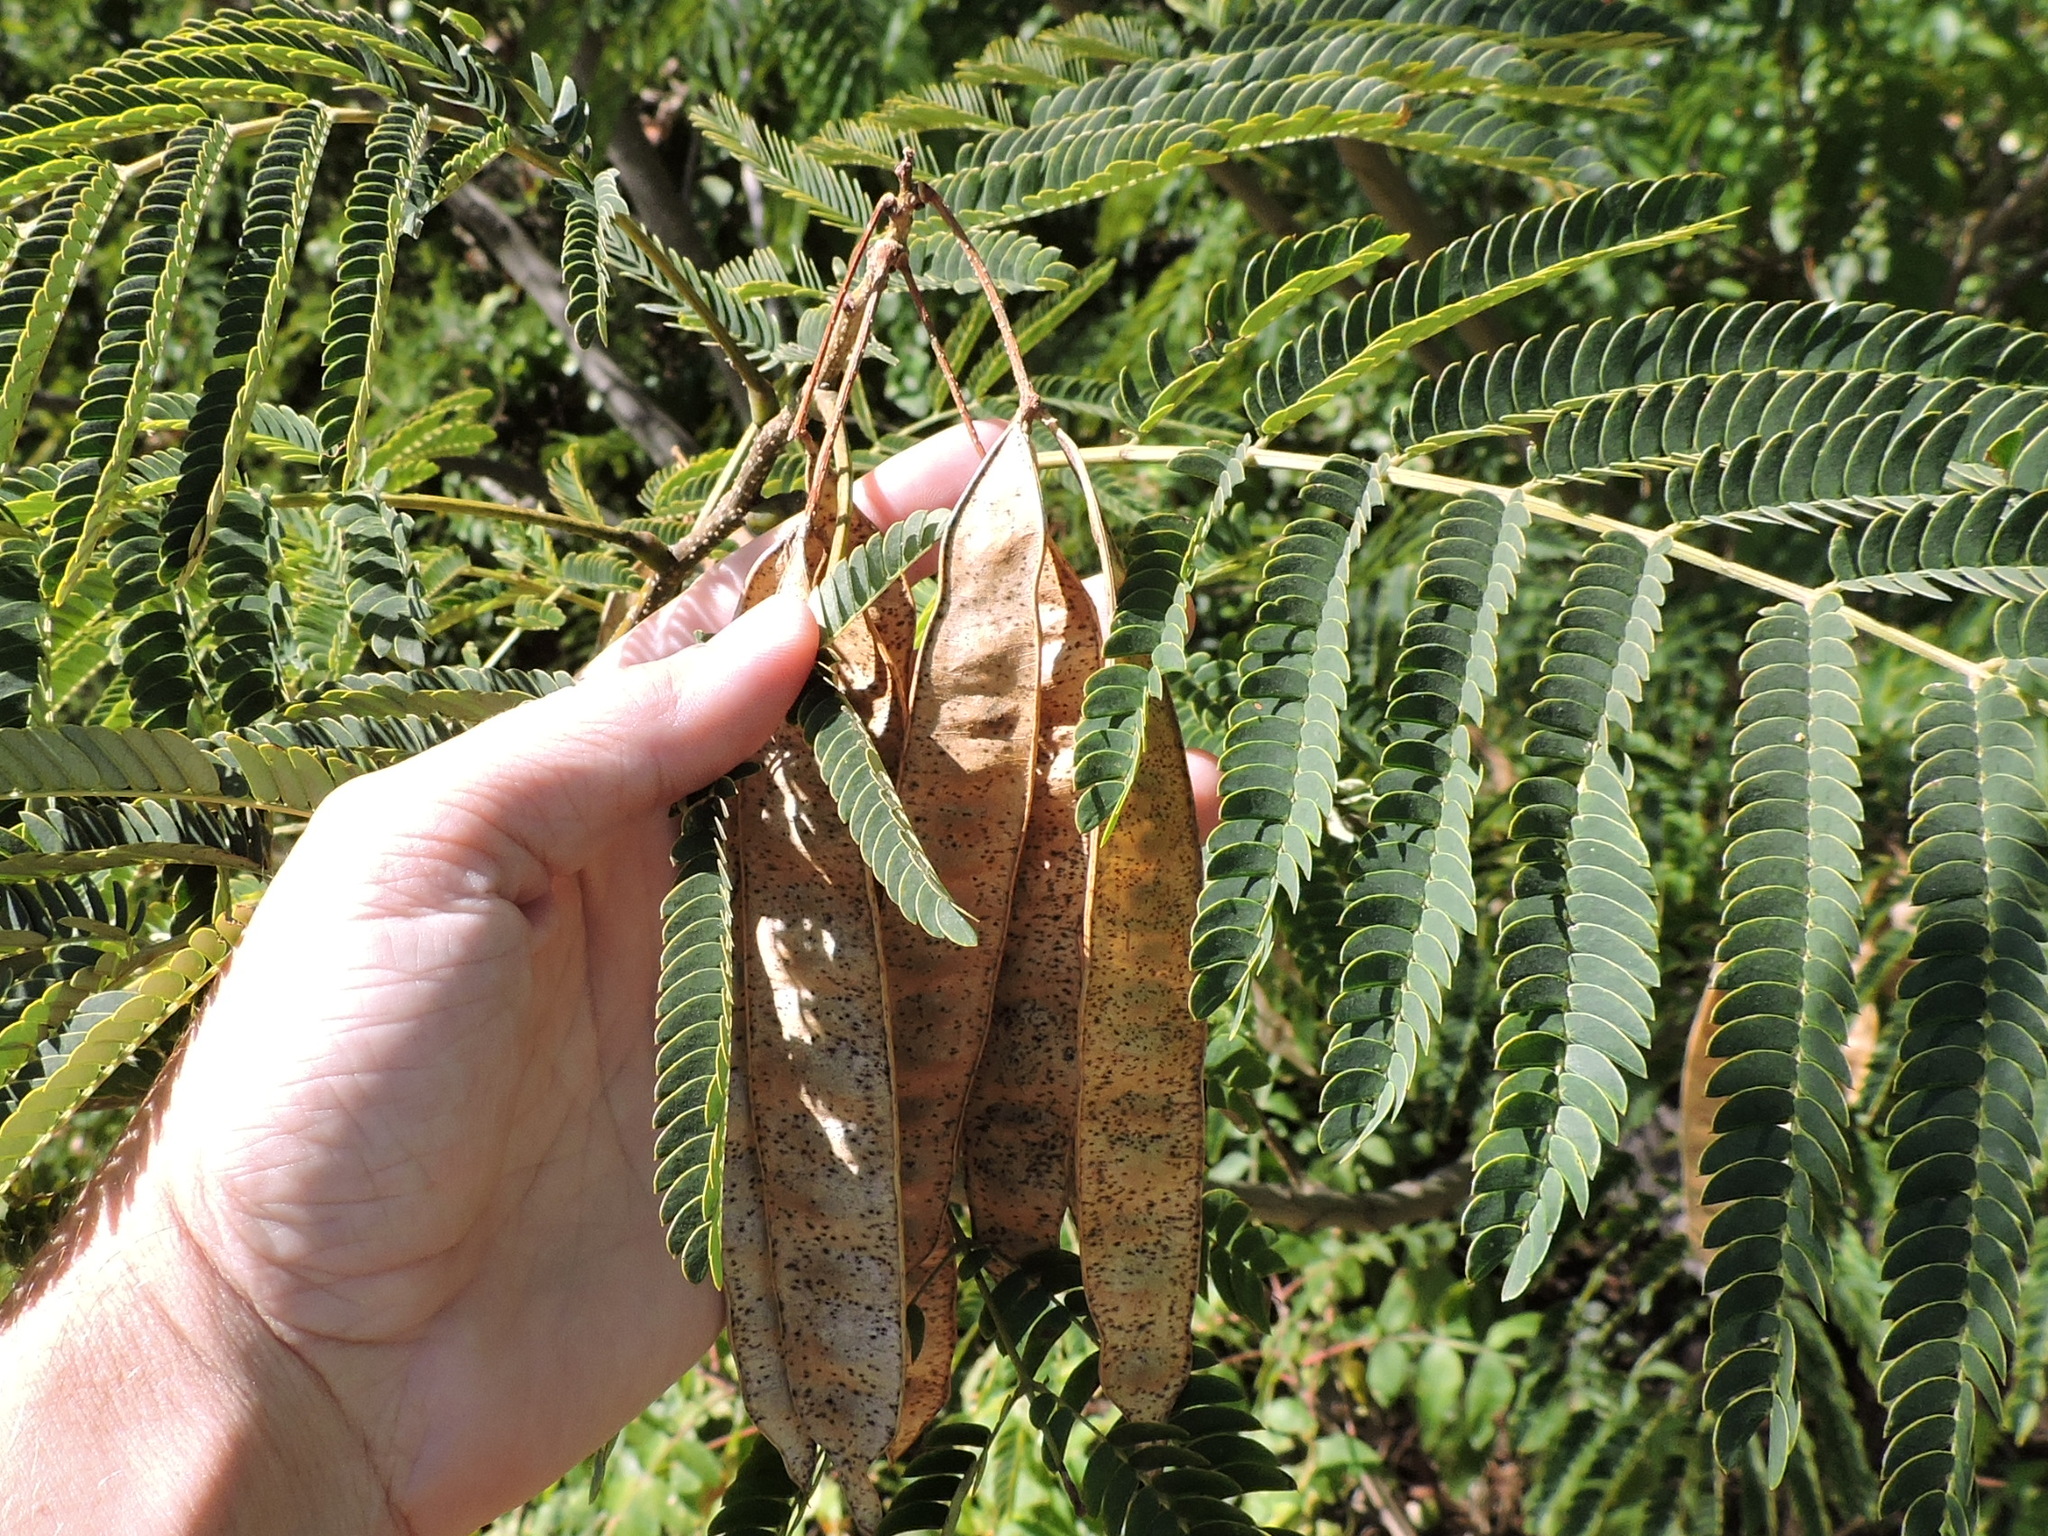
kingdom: Plantae
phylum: Tracheophyta
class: Magnoliopsida
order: Fabales
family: Fabaceae
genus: Albizia
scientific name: Albizia julibrissin
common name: Silktree
